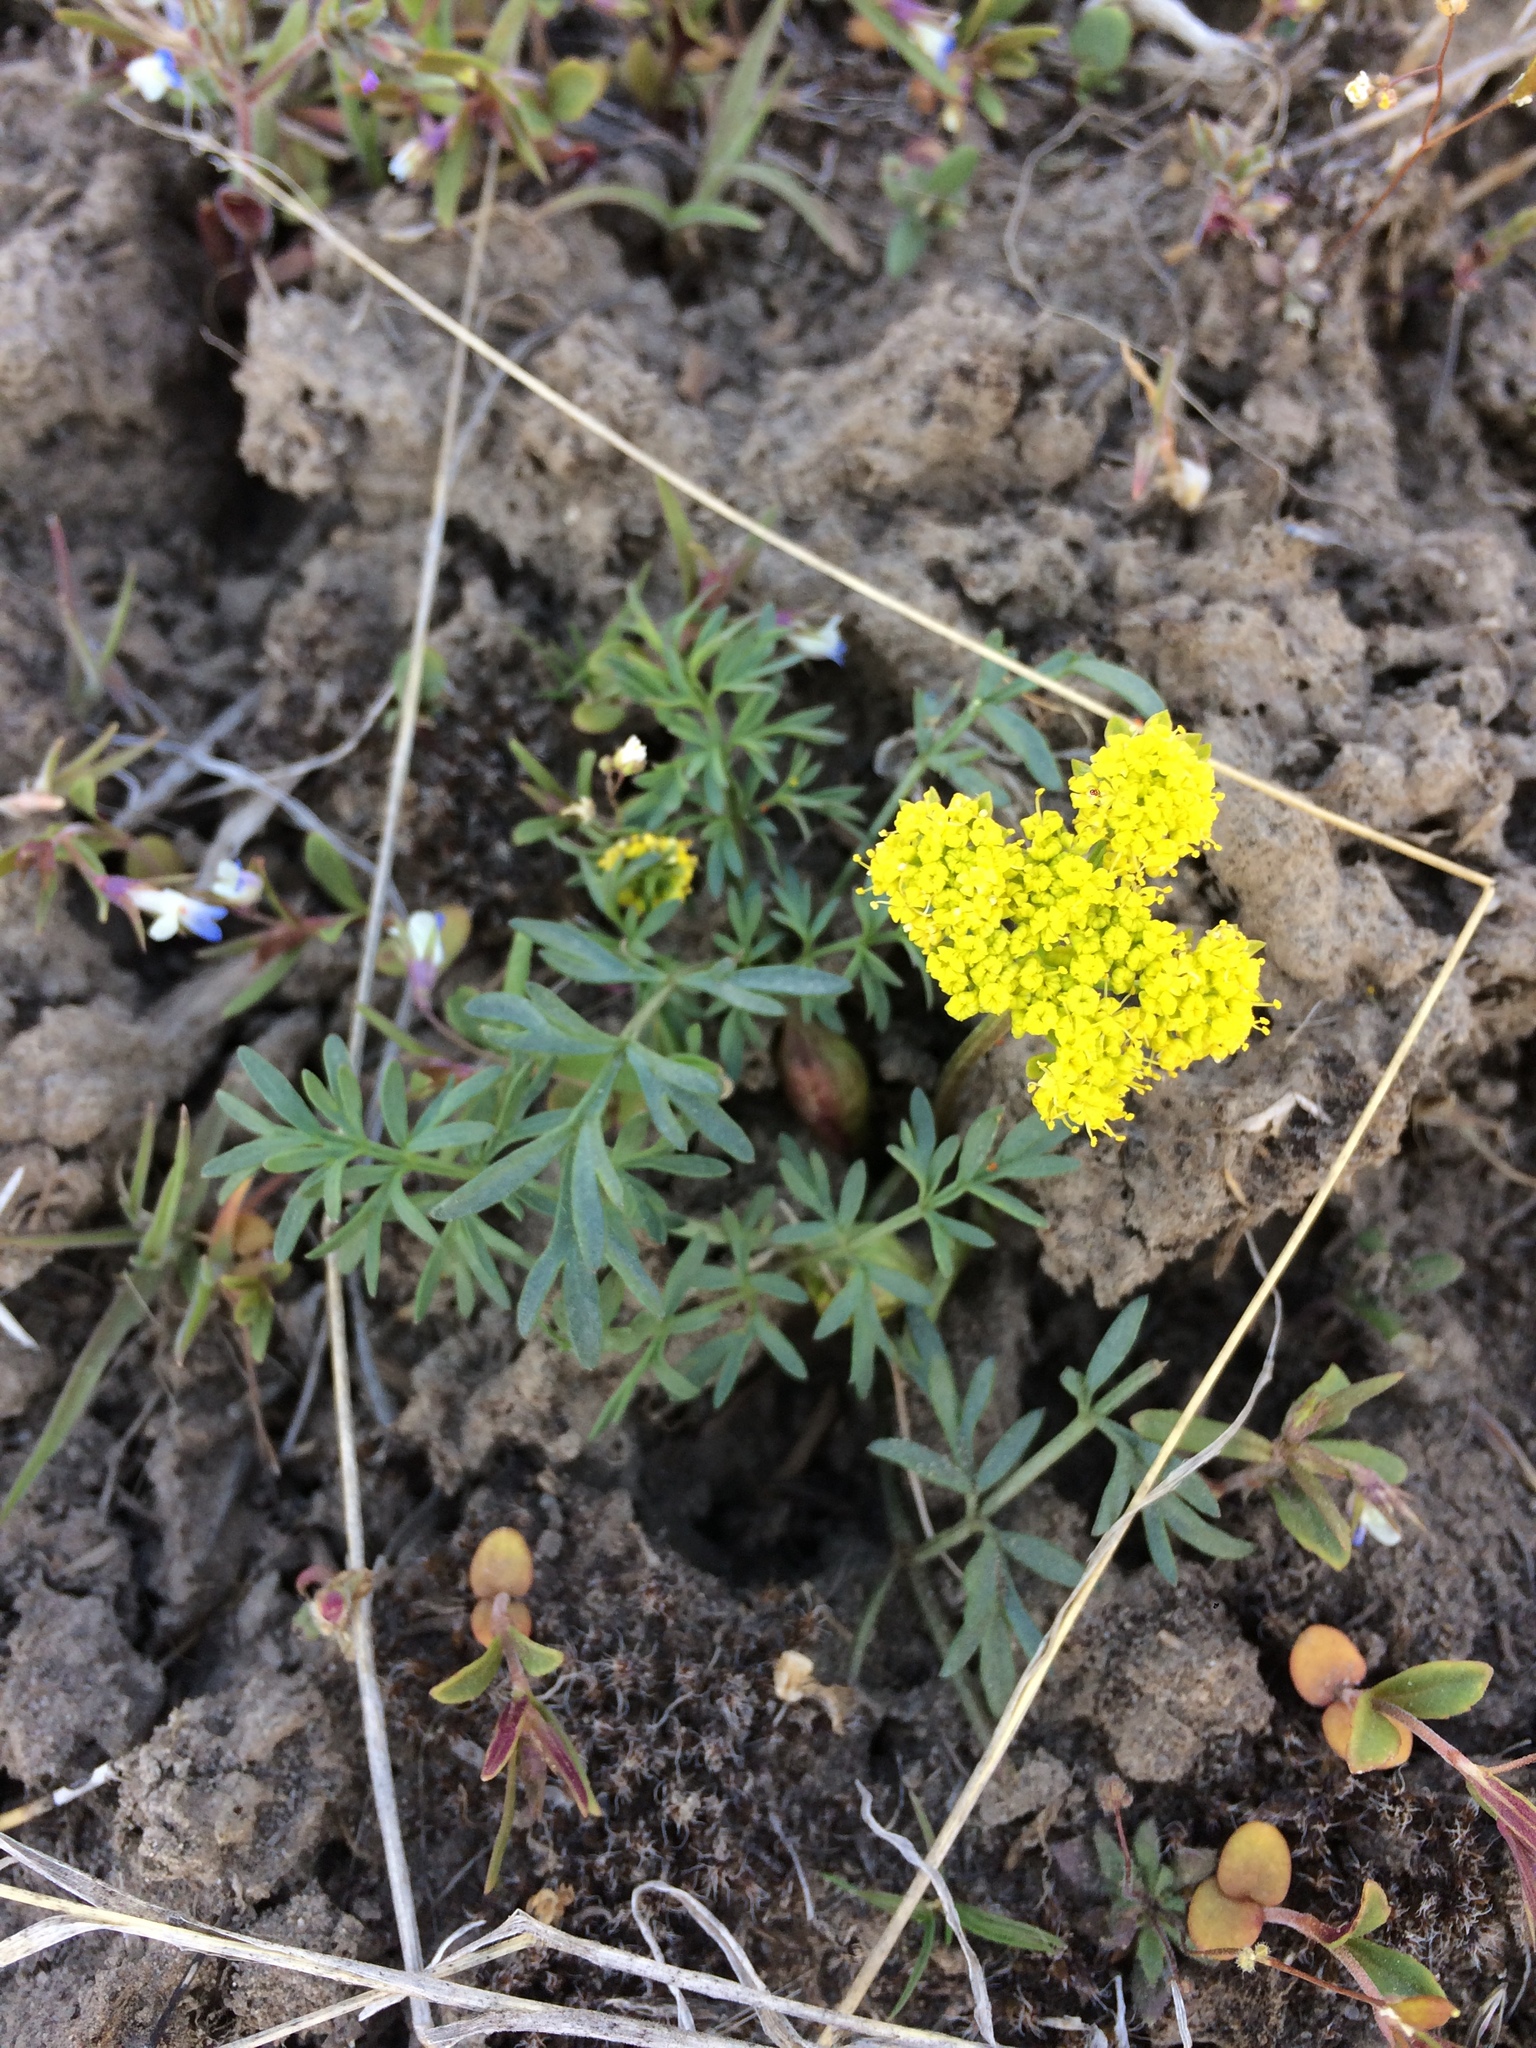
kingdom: Plantae
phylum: Tracheophyta
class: Magnoliopsida
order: Apiales
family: Apiaceae
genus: Lomatium
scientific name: Lomatium cous
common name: Biscuit-root
